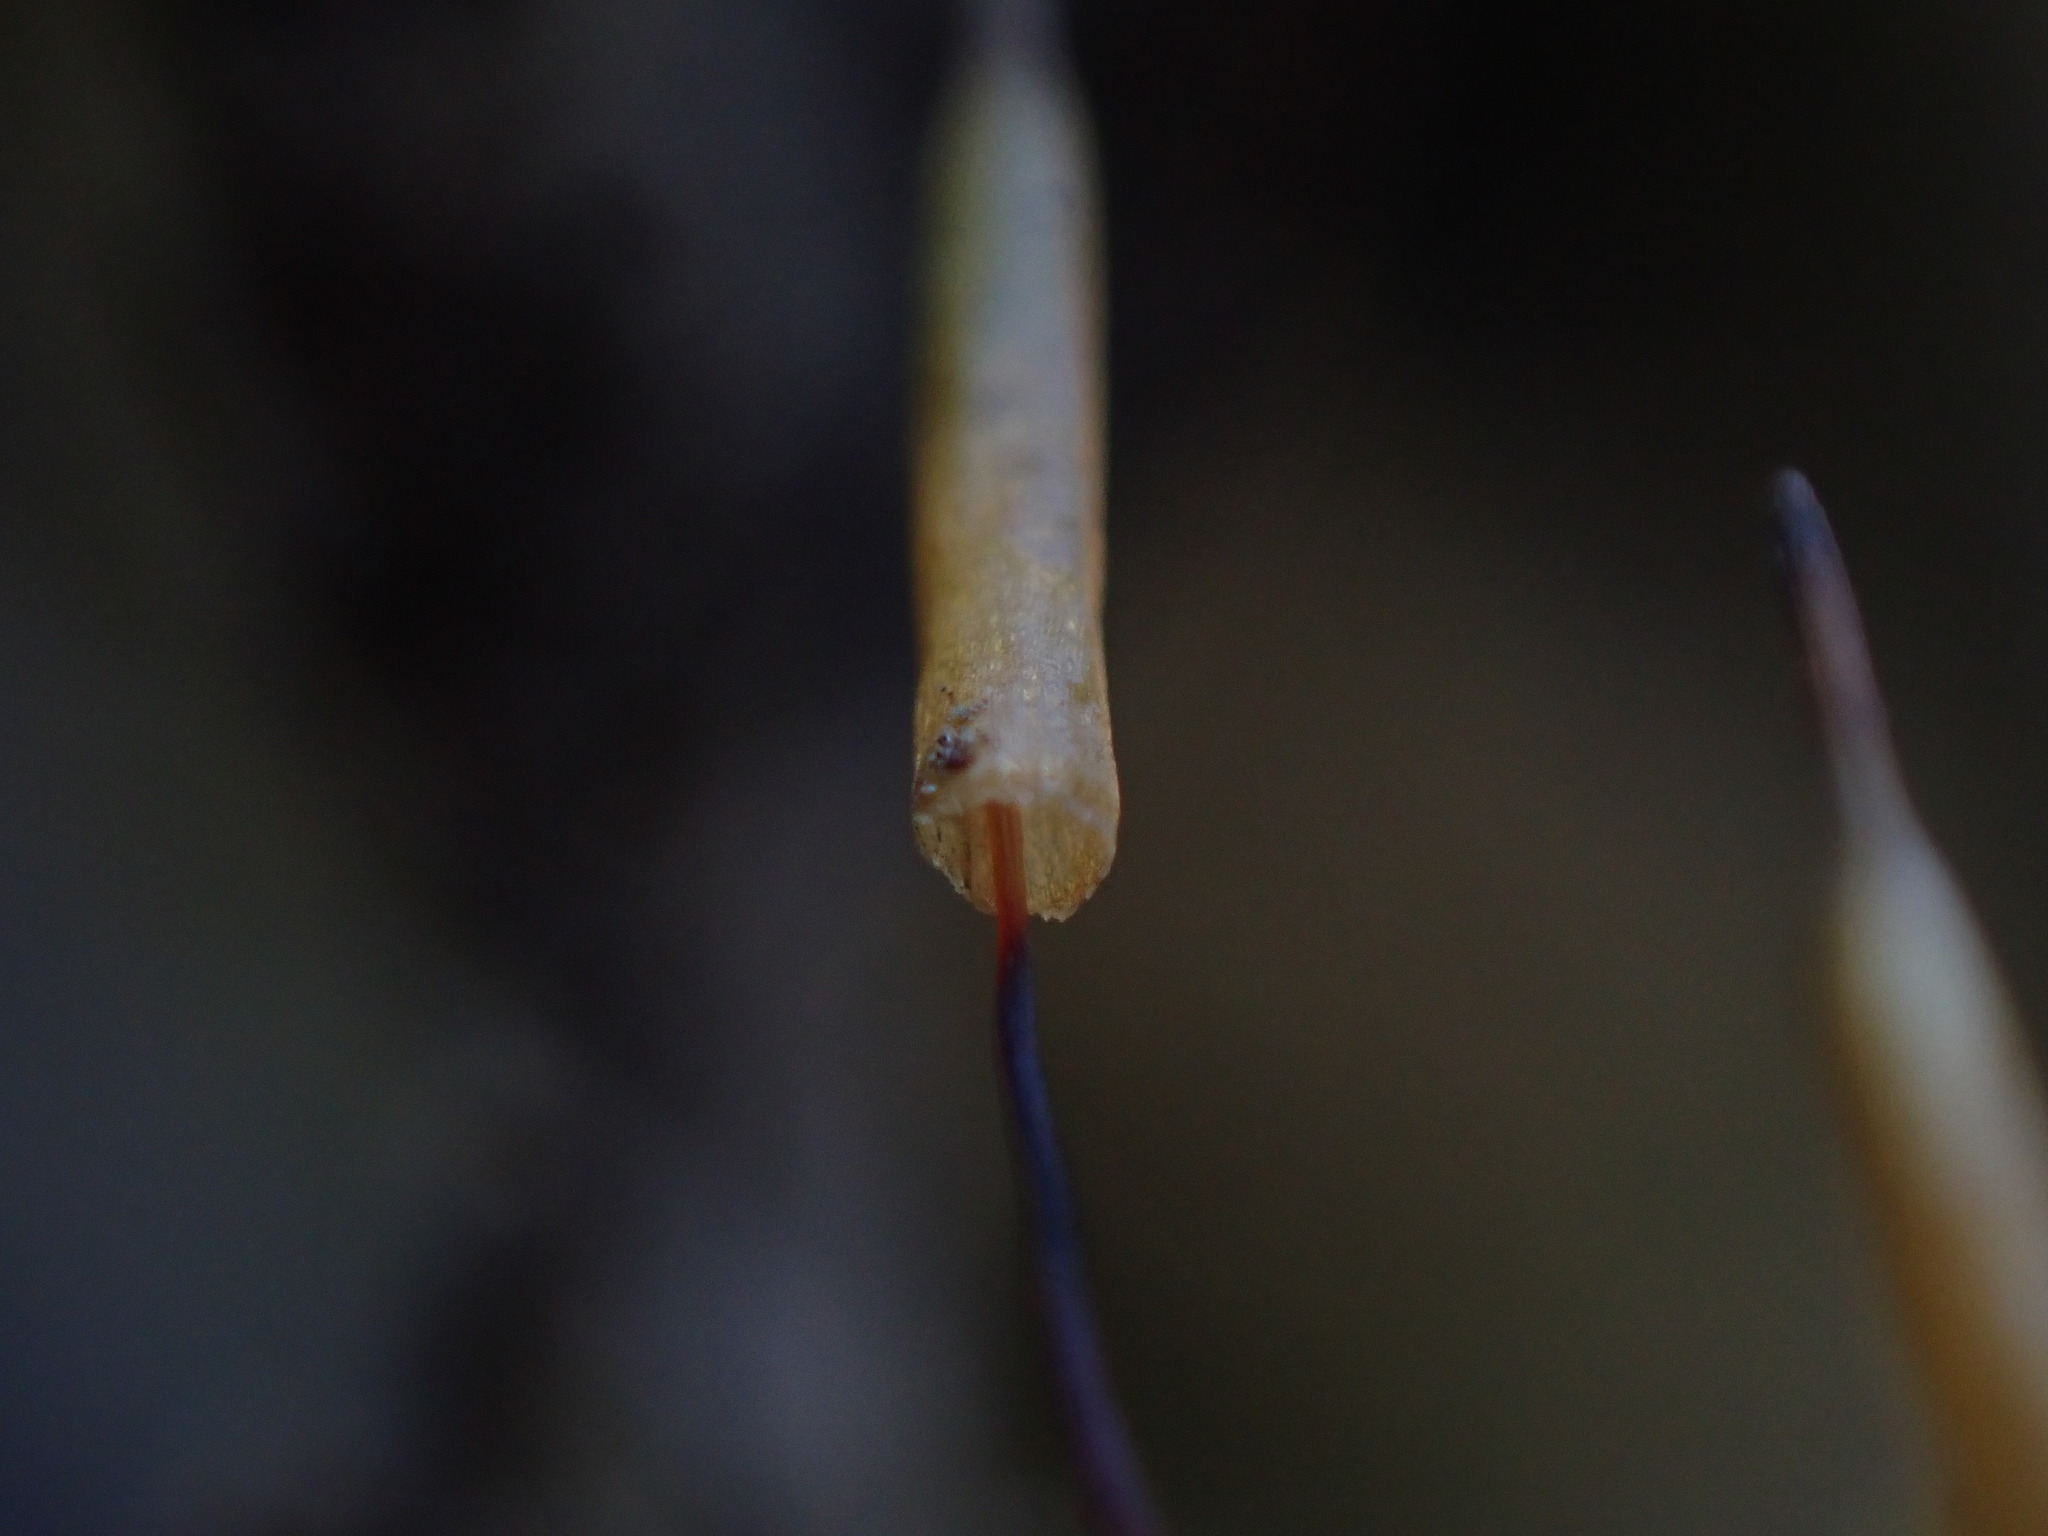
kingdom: Plantae
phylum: Bryophyta
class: Bryopsida
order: Encalyptales
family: Encalyptaceae
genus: Encalypta
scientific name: Encalypta procera
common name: Spiral extinguisher moss
